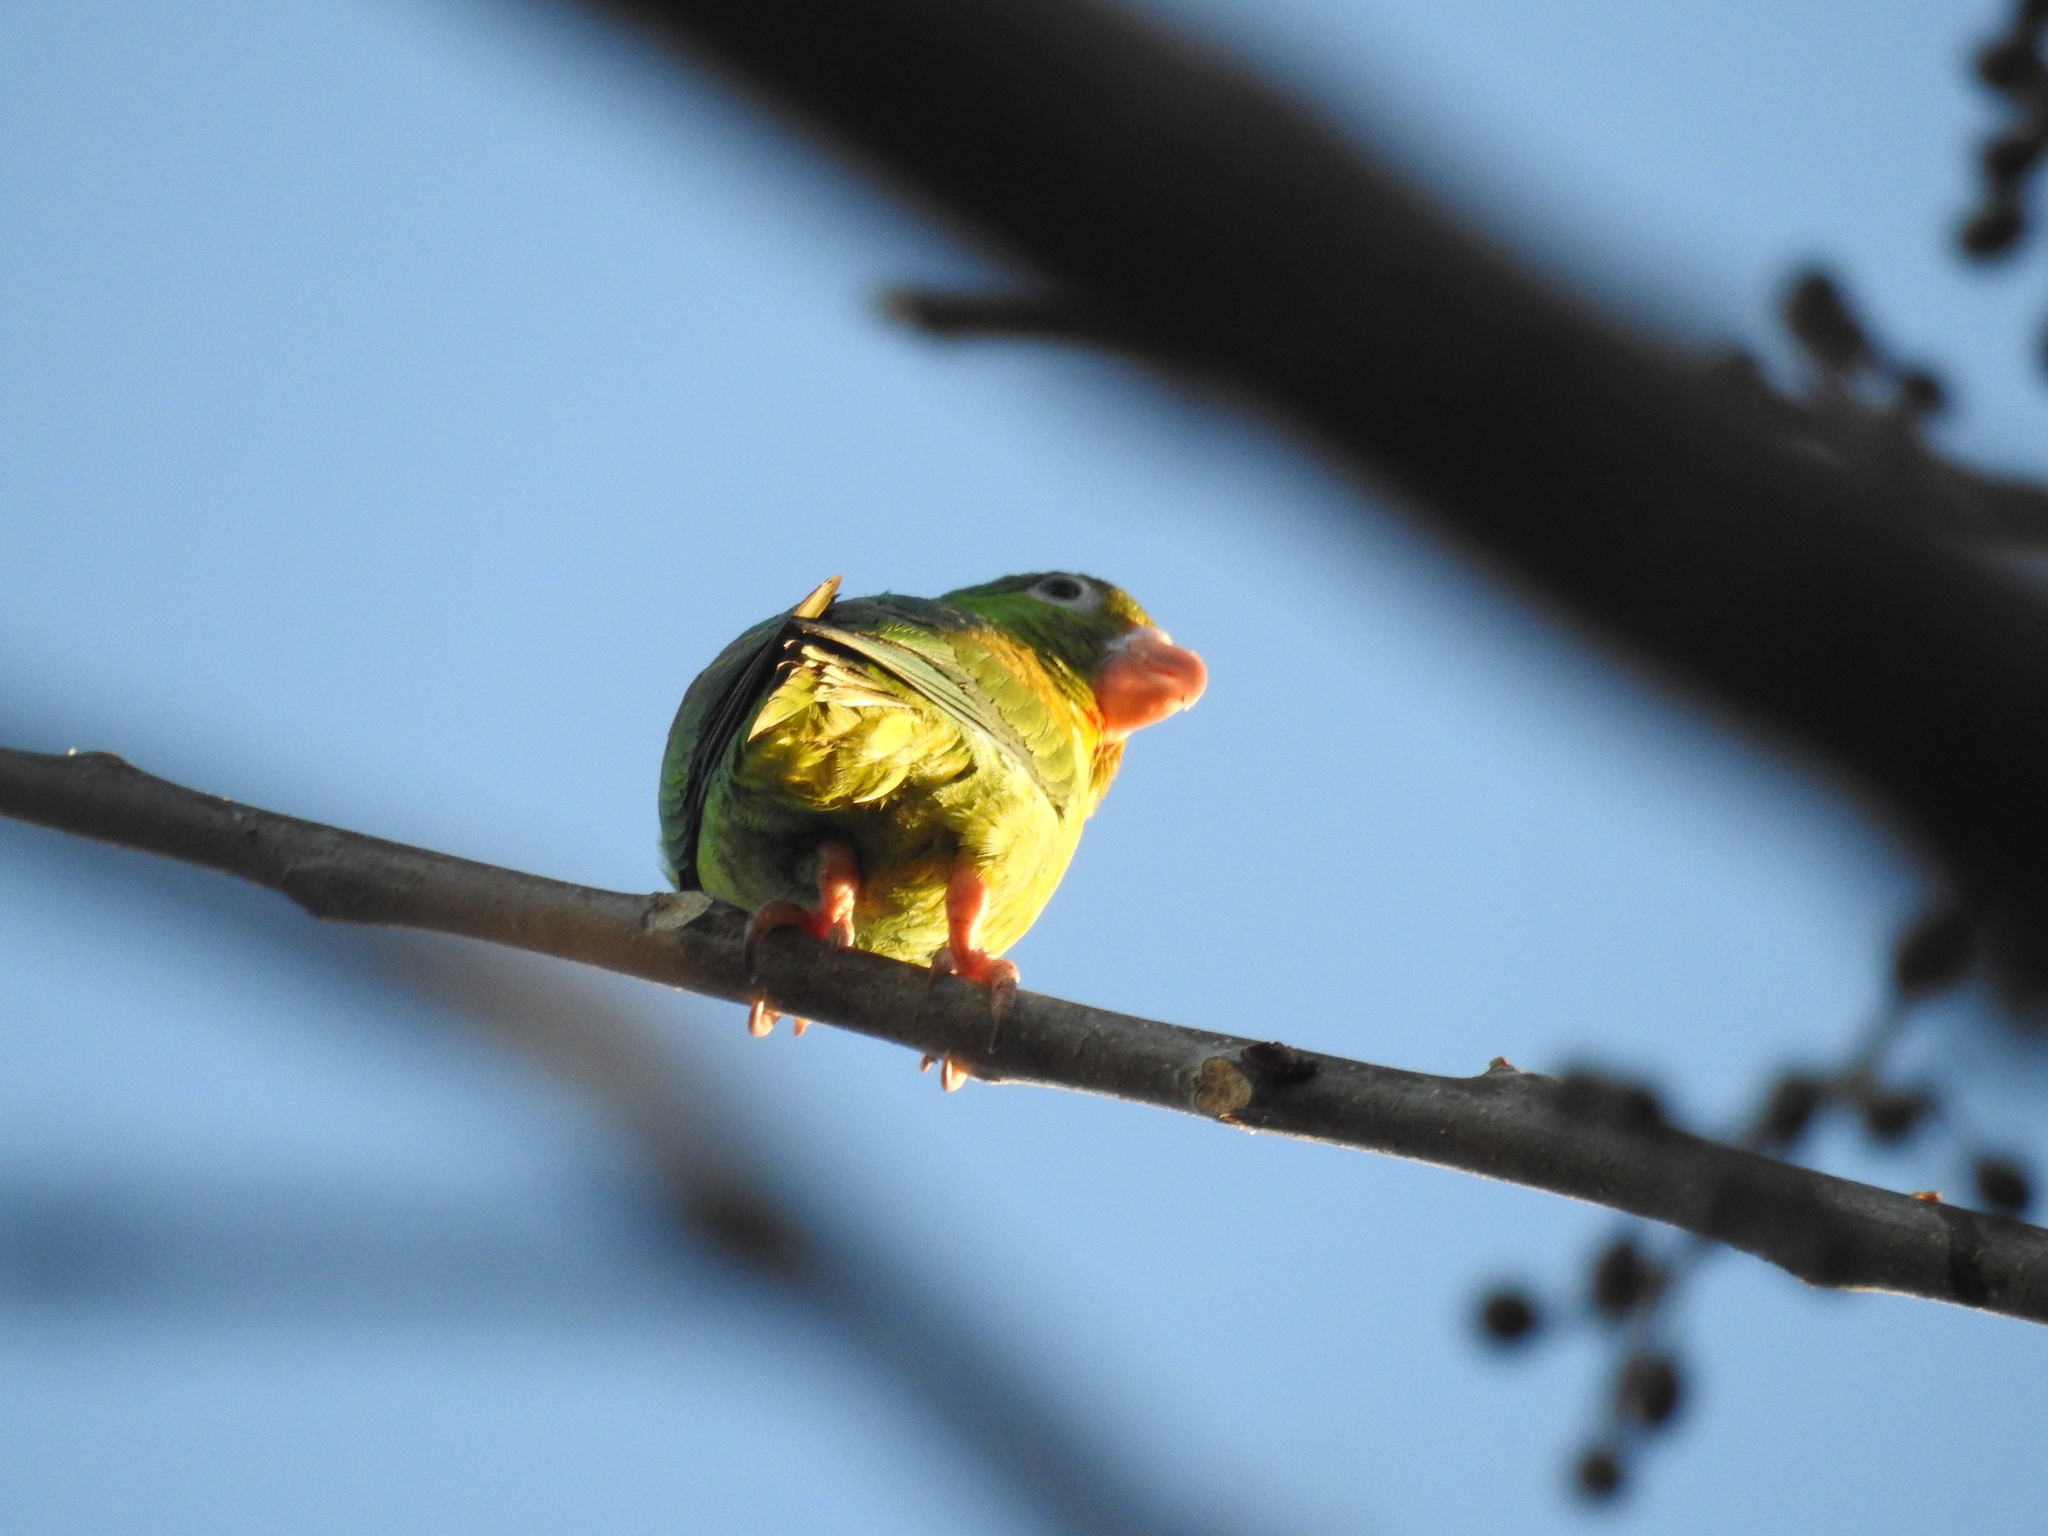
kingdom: Animalia
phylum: Chordata
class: Aves
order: Psittaciformes
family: Psittacidae
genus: Brotogeris
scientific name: Brotogeris jugularis
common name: Orange-chinned parakeet
